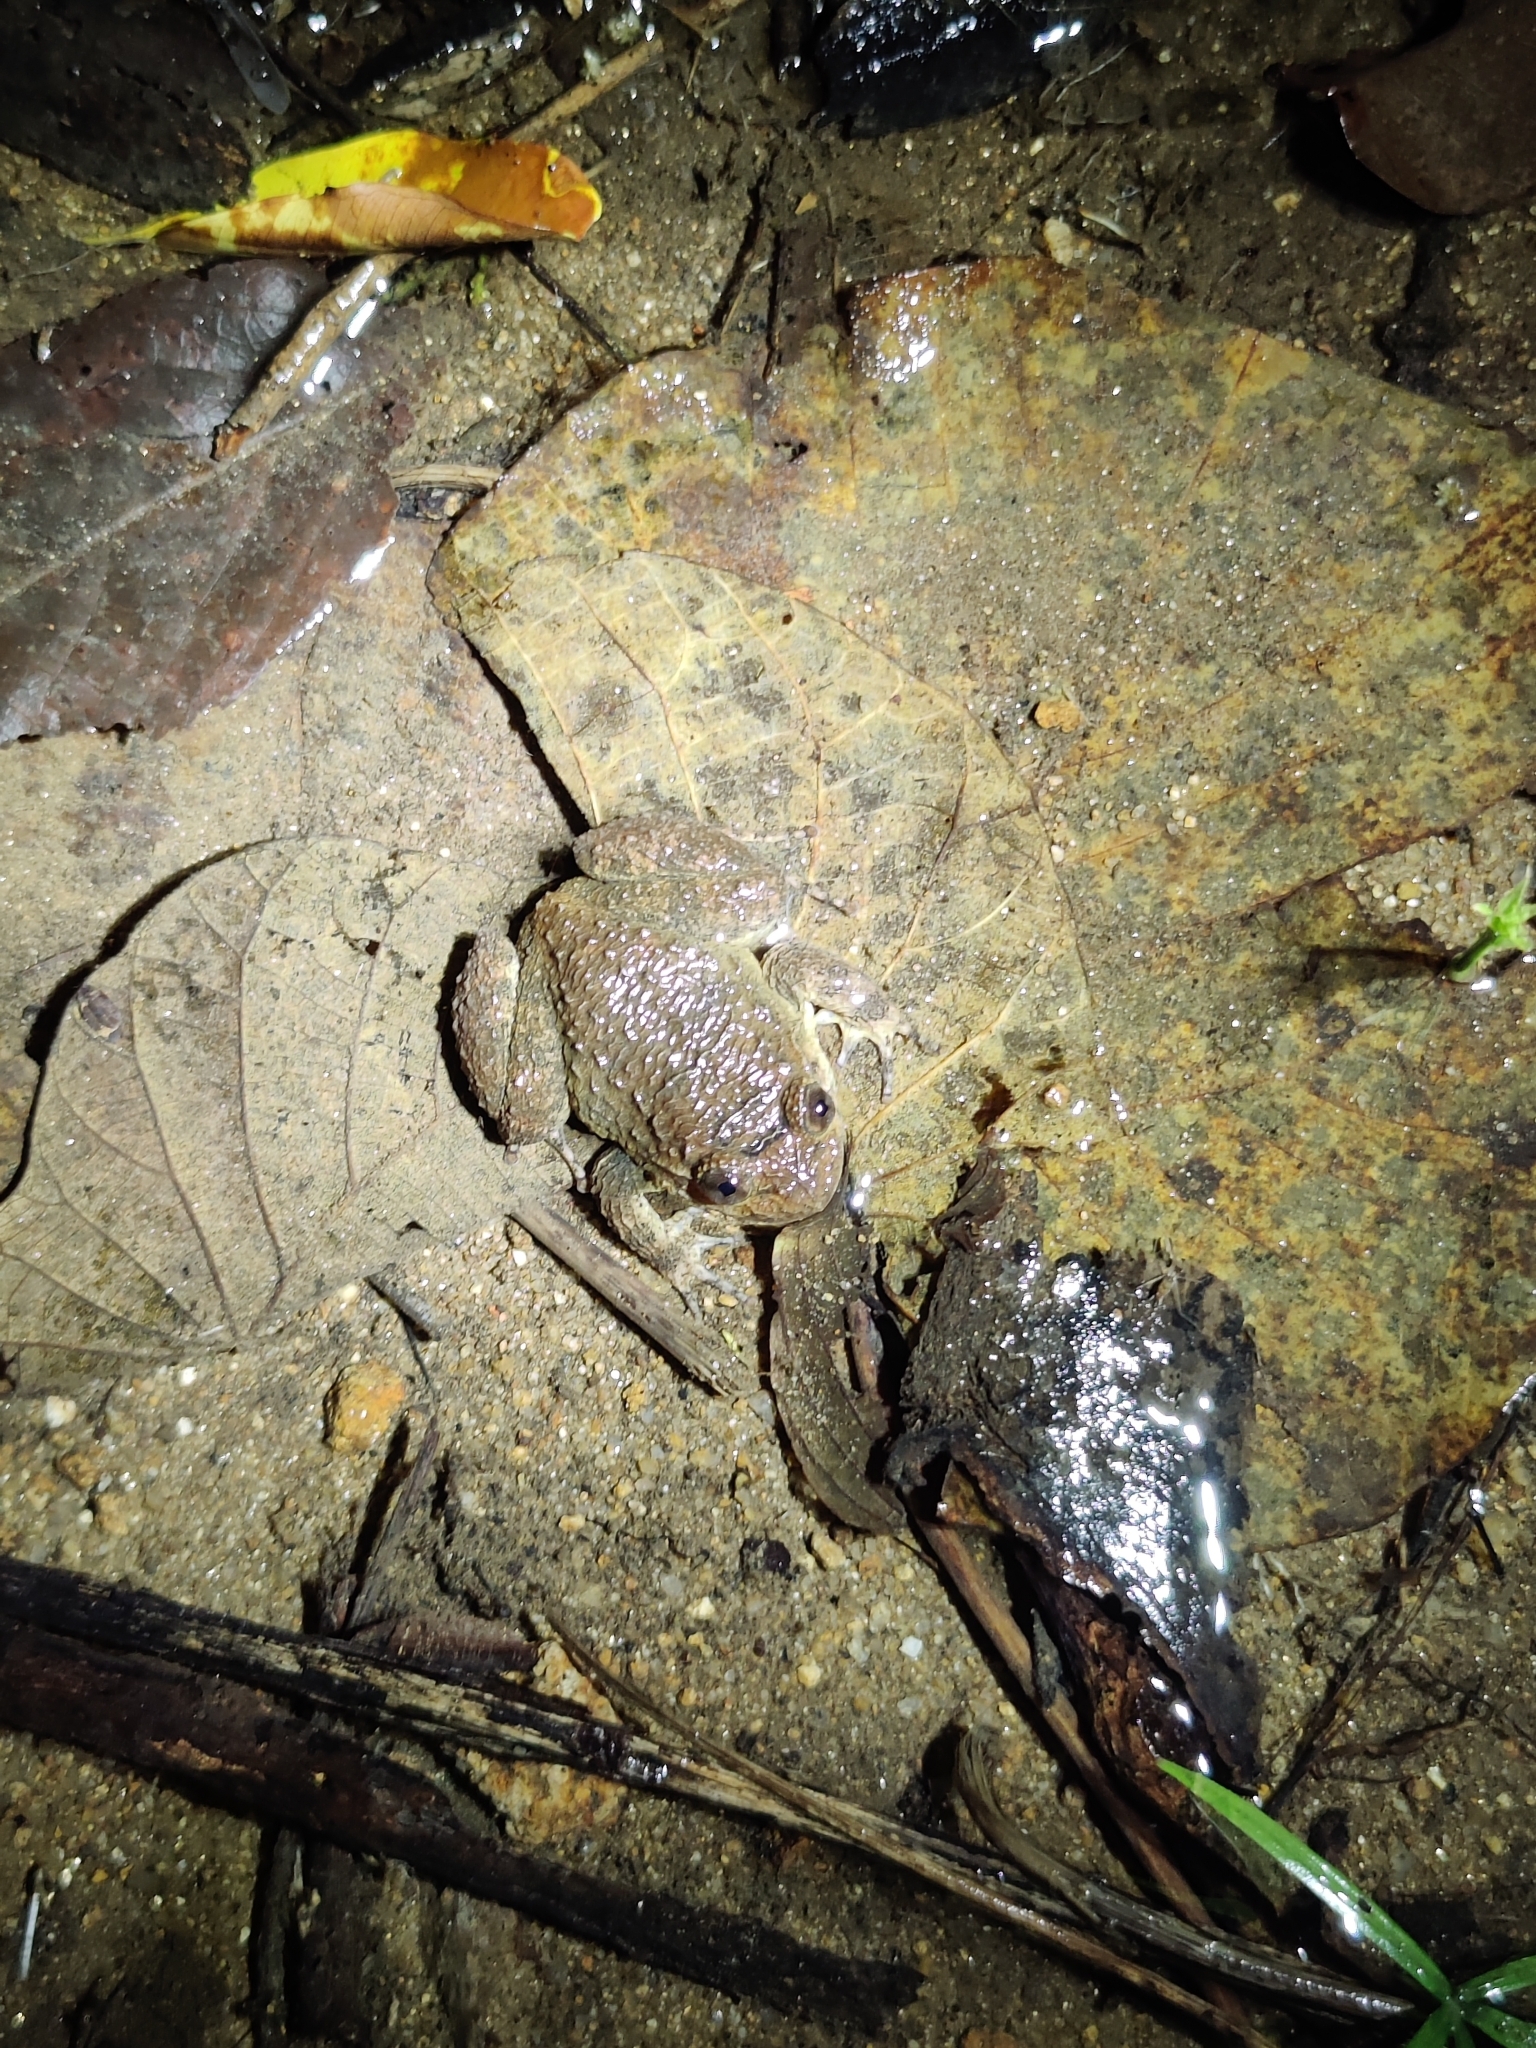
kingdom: Animalia
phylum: Chordata
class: Amphibia
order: Anura
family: Nyctibatrachidae
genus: Nyctibatrachus
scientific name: Nyctibatrachus major
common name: Large wrinkled frog
